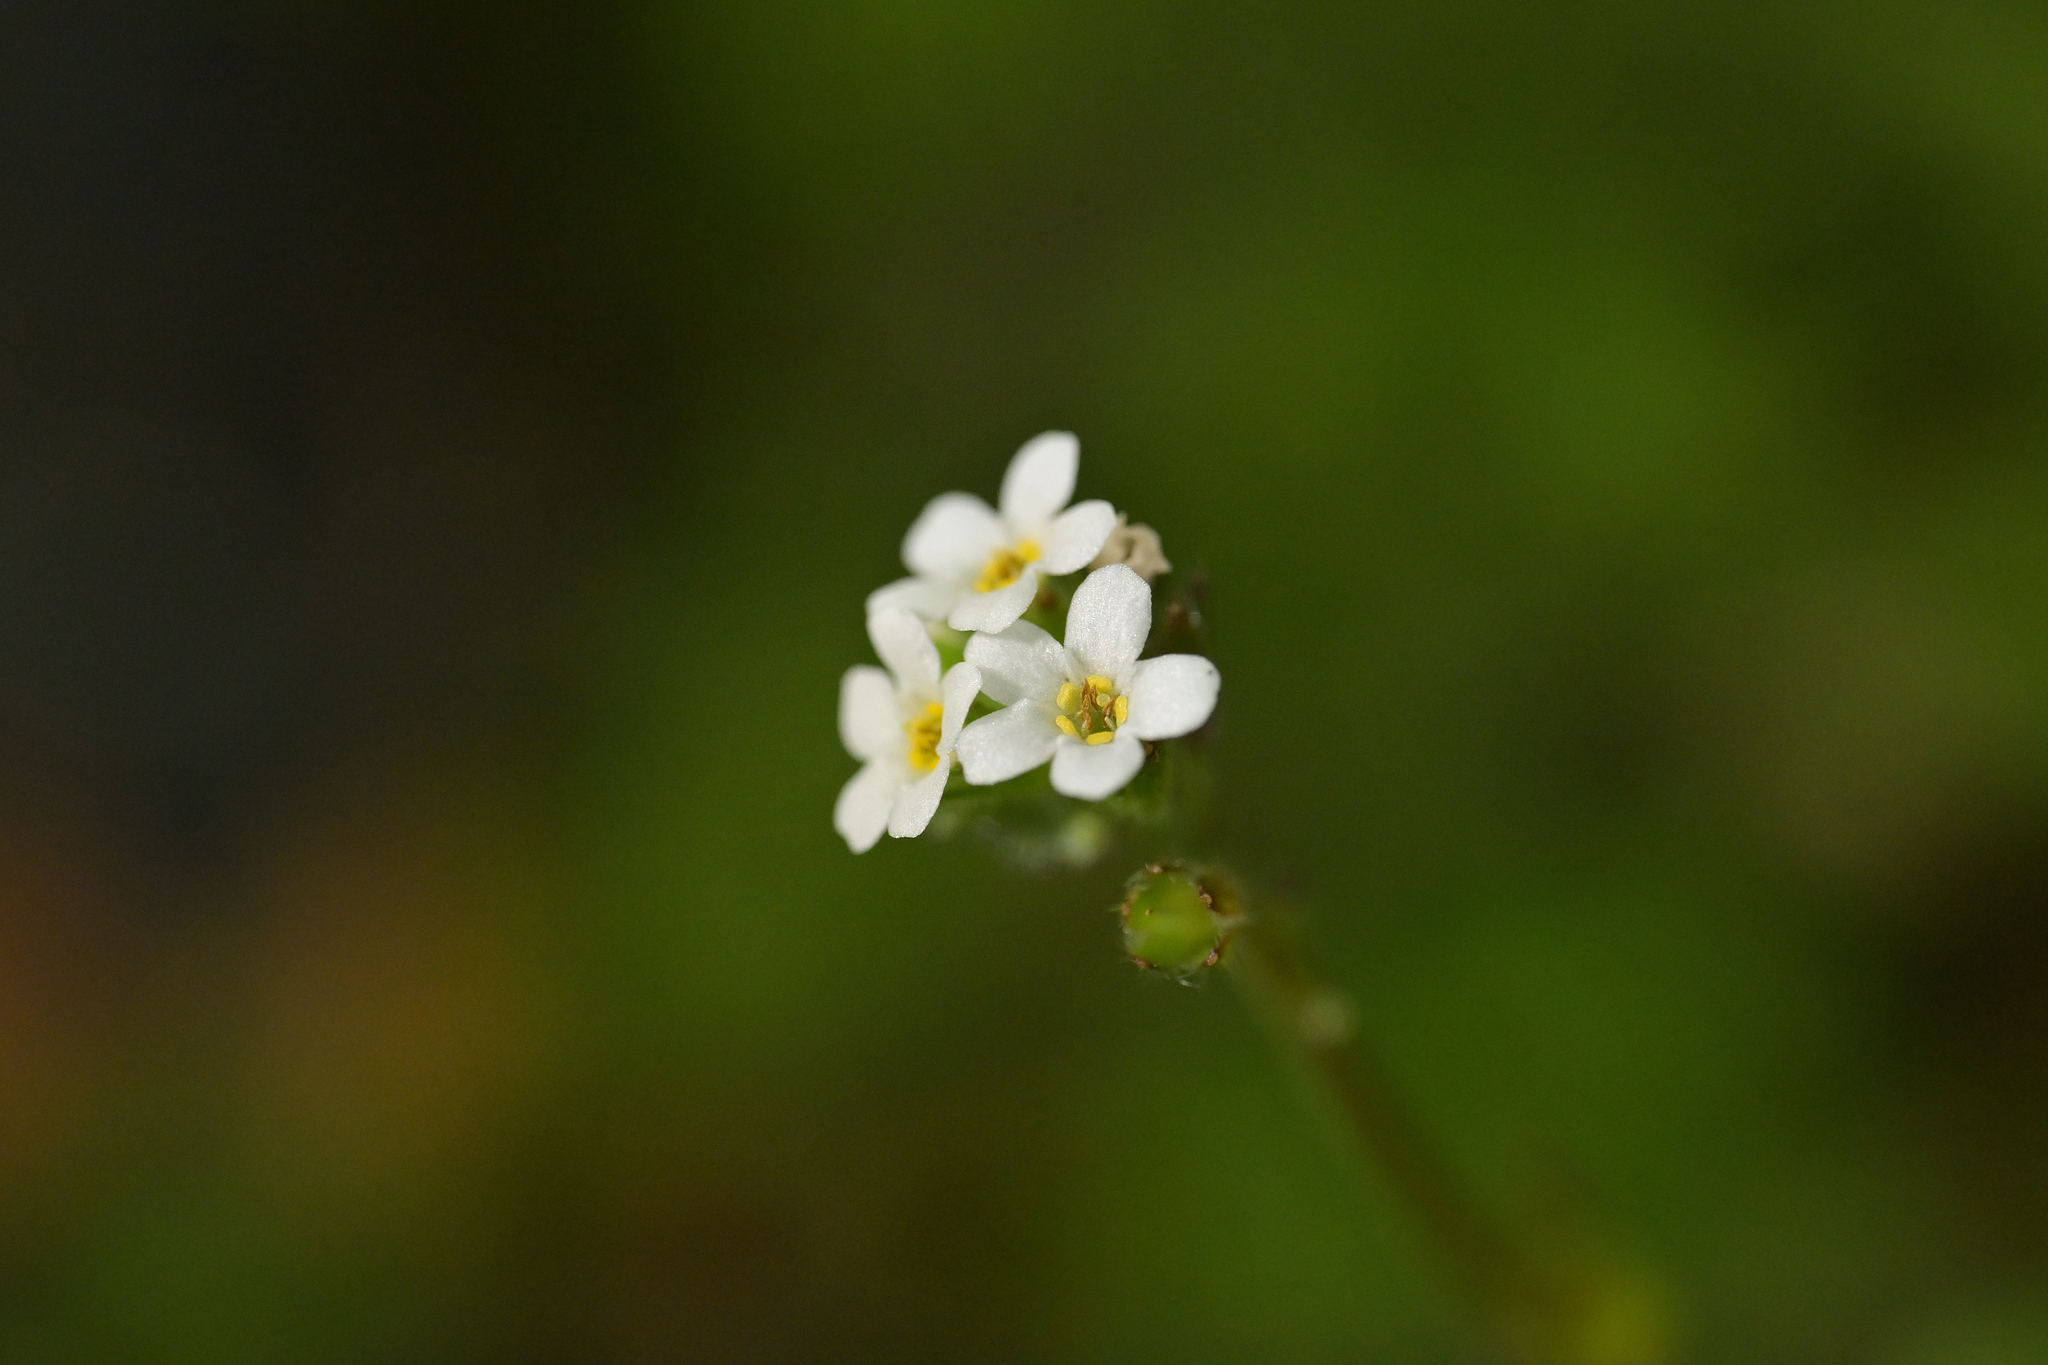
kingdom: Plantae
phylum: Tracheophyta
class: Magnoliopsida
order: Boraginales
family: Boraginaceae
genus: Myosotis
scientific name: Myosotis forsteri
